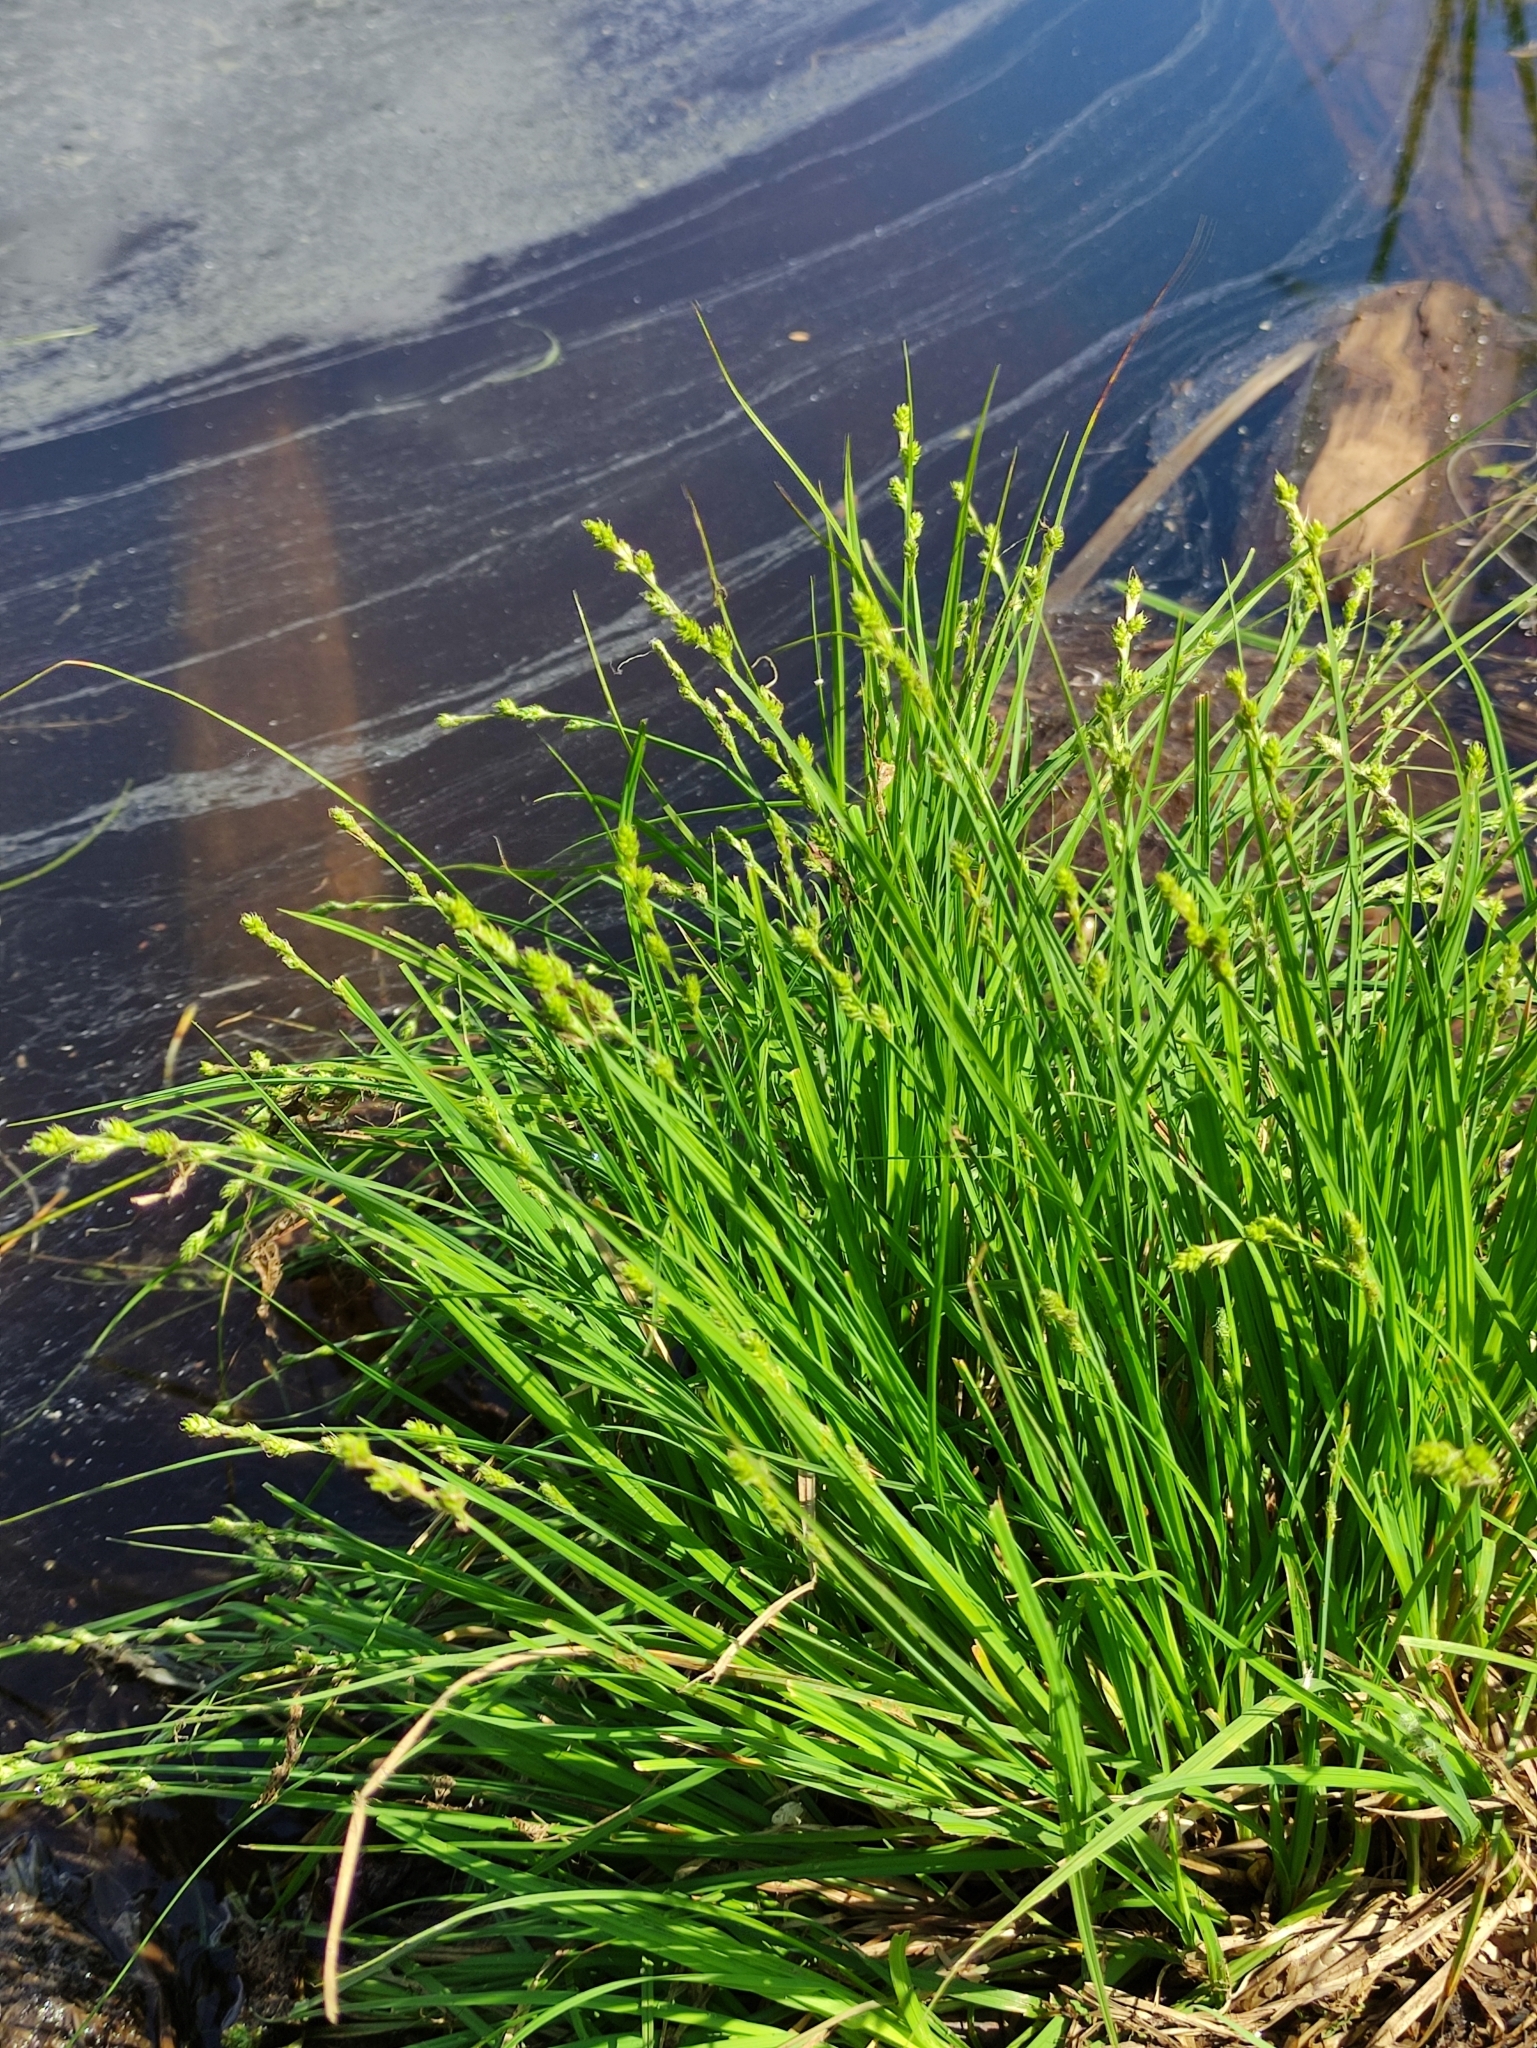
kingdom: Plantae
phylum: Tracheophyta
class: Liliopsida
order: Poales
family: Cyperaceae
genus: Carex
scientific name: Carex canescens
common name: White sedge
